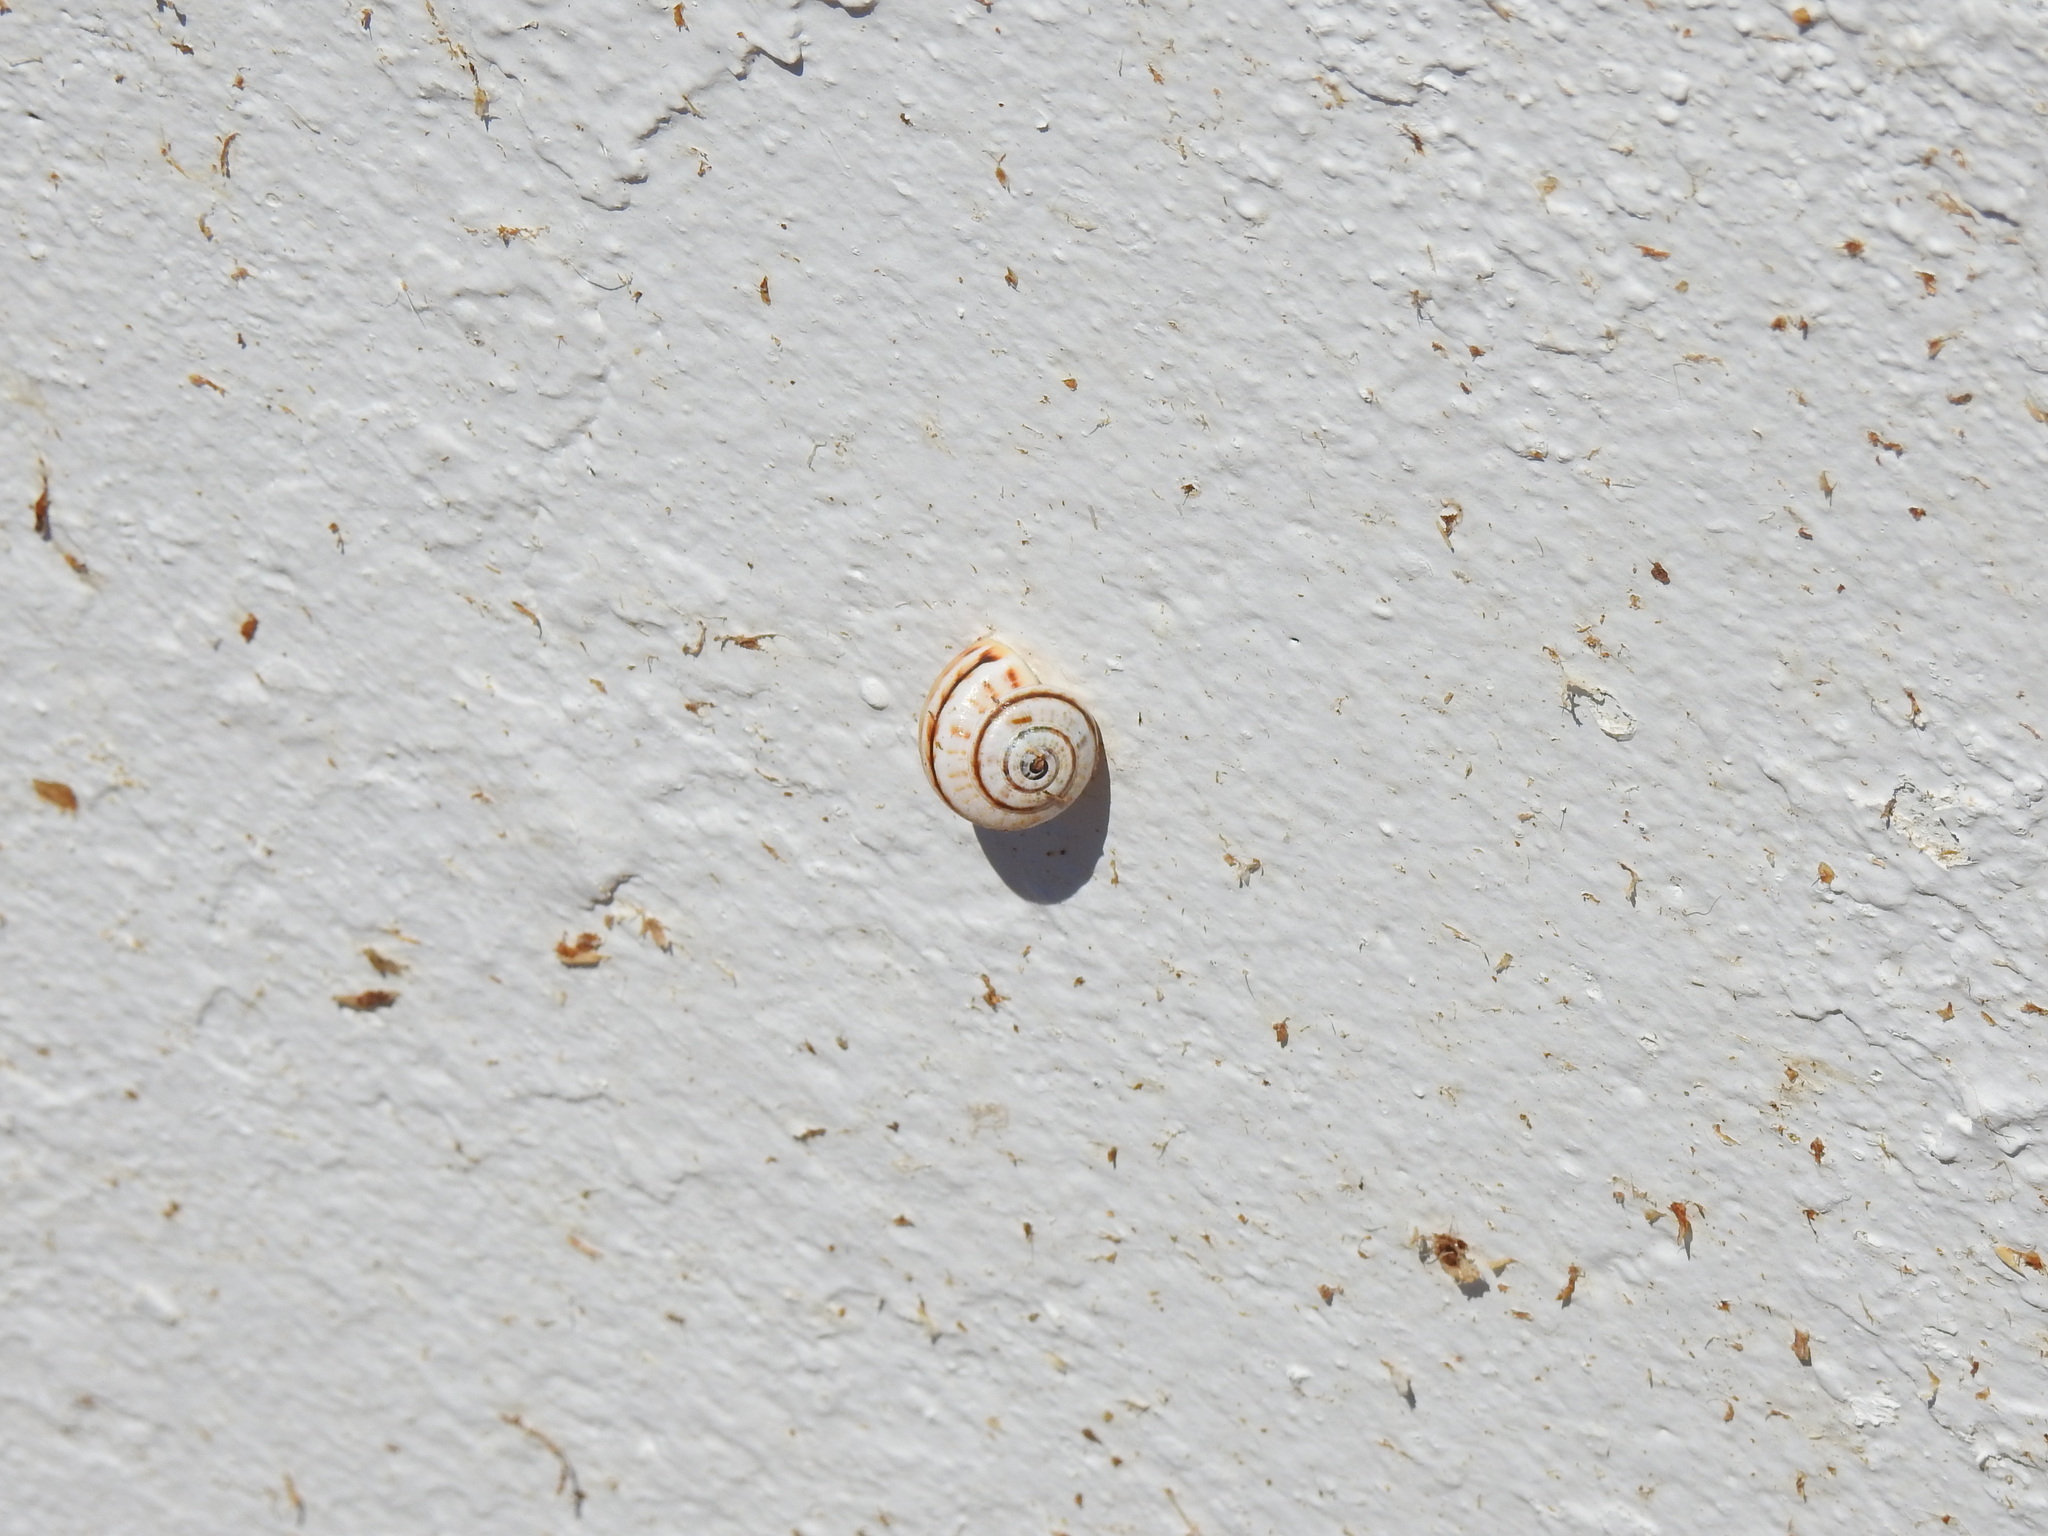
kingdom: Animalia
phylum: Mollusca
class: Gastropoda
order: Stylommatophora
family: Helicidae
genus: Theba
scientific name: Theba pisana
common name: White snail
